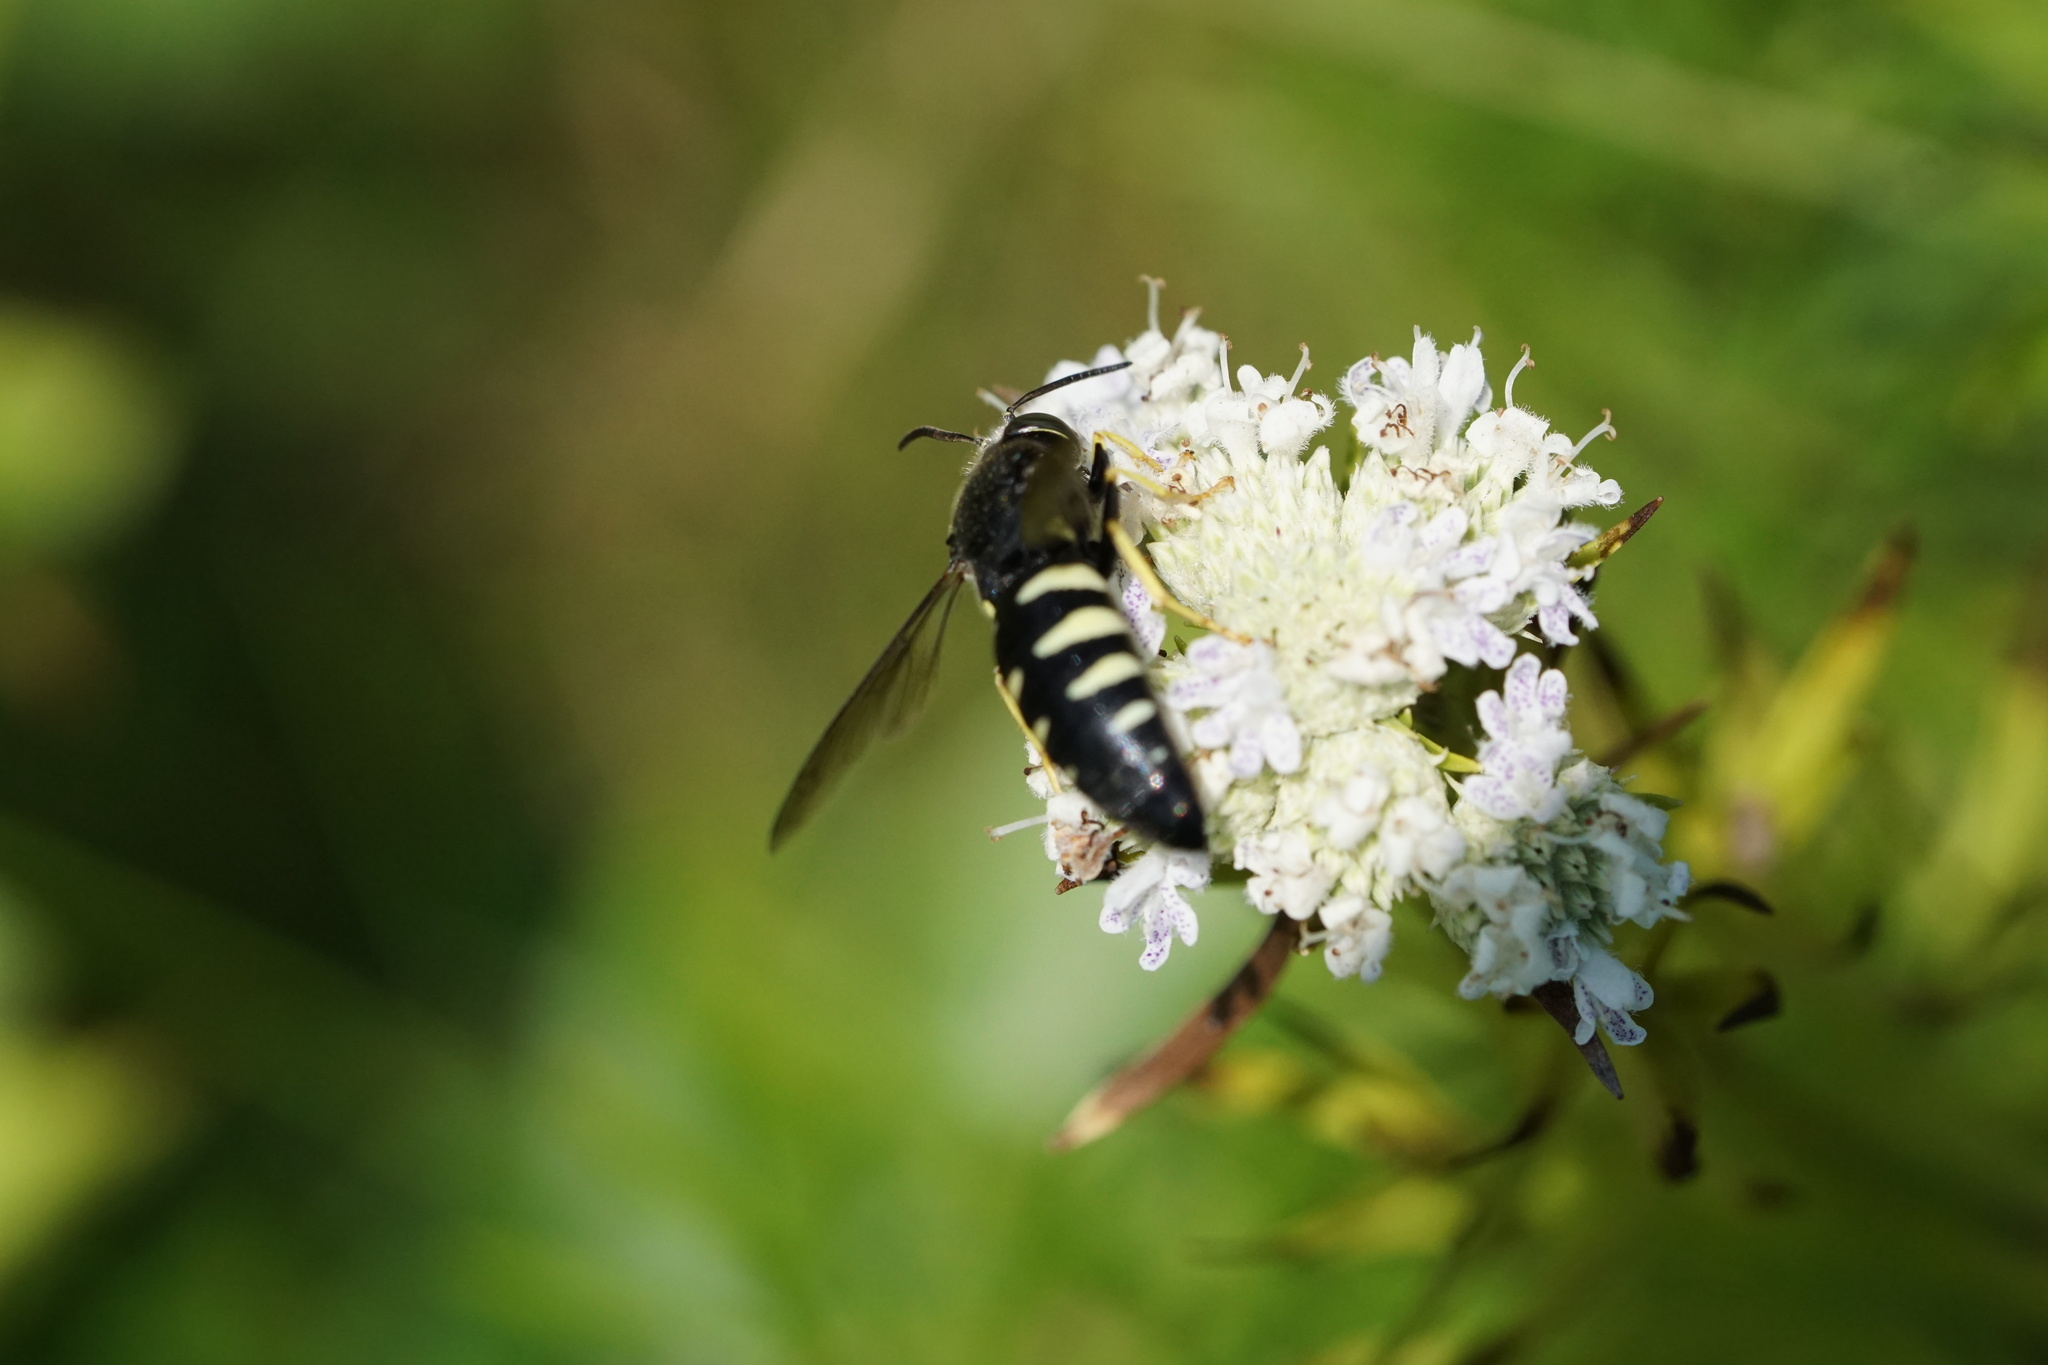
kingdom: Animalia
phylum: Arthropoda
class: Insecta
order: Hymenoptera
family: Crabronidae
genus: Bicyrtes
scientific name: Bicyrtes quadrifasciatus
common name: Four-banded stink bug hunter wasp
